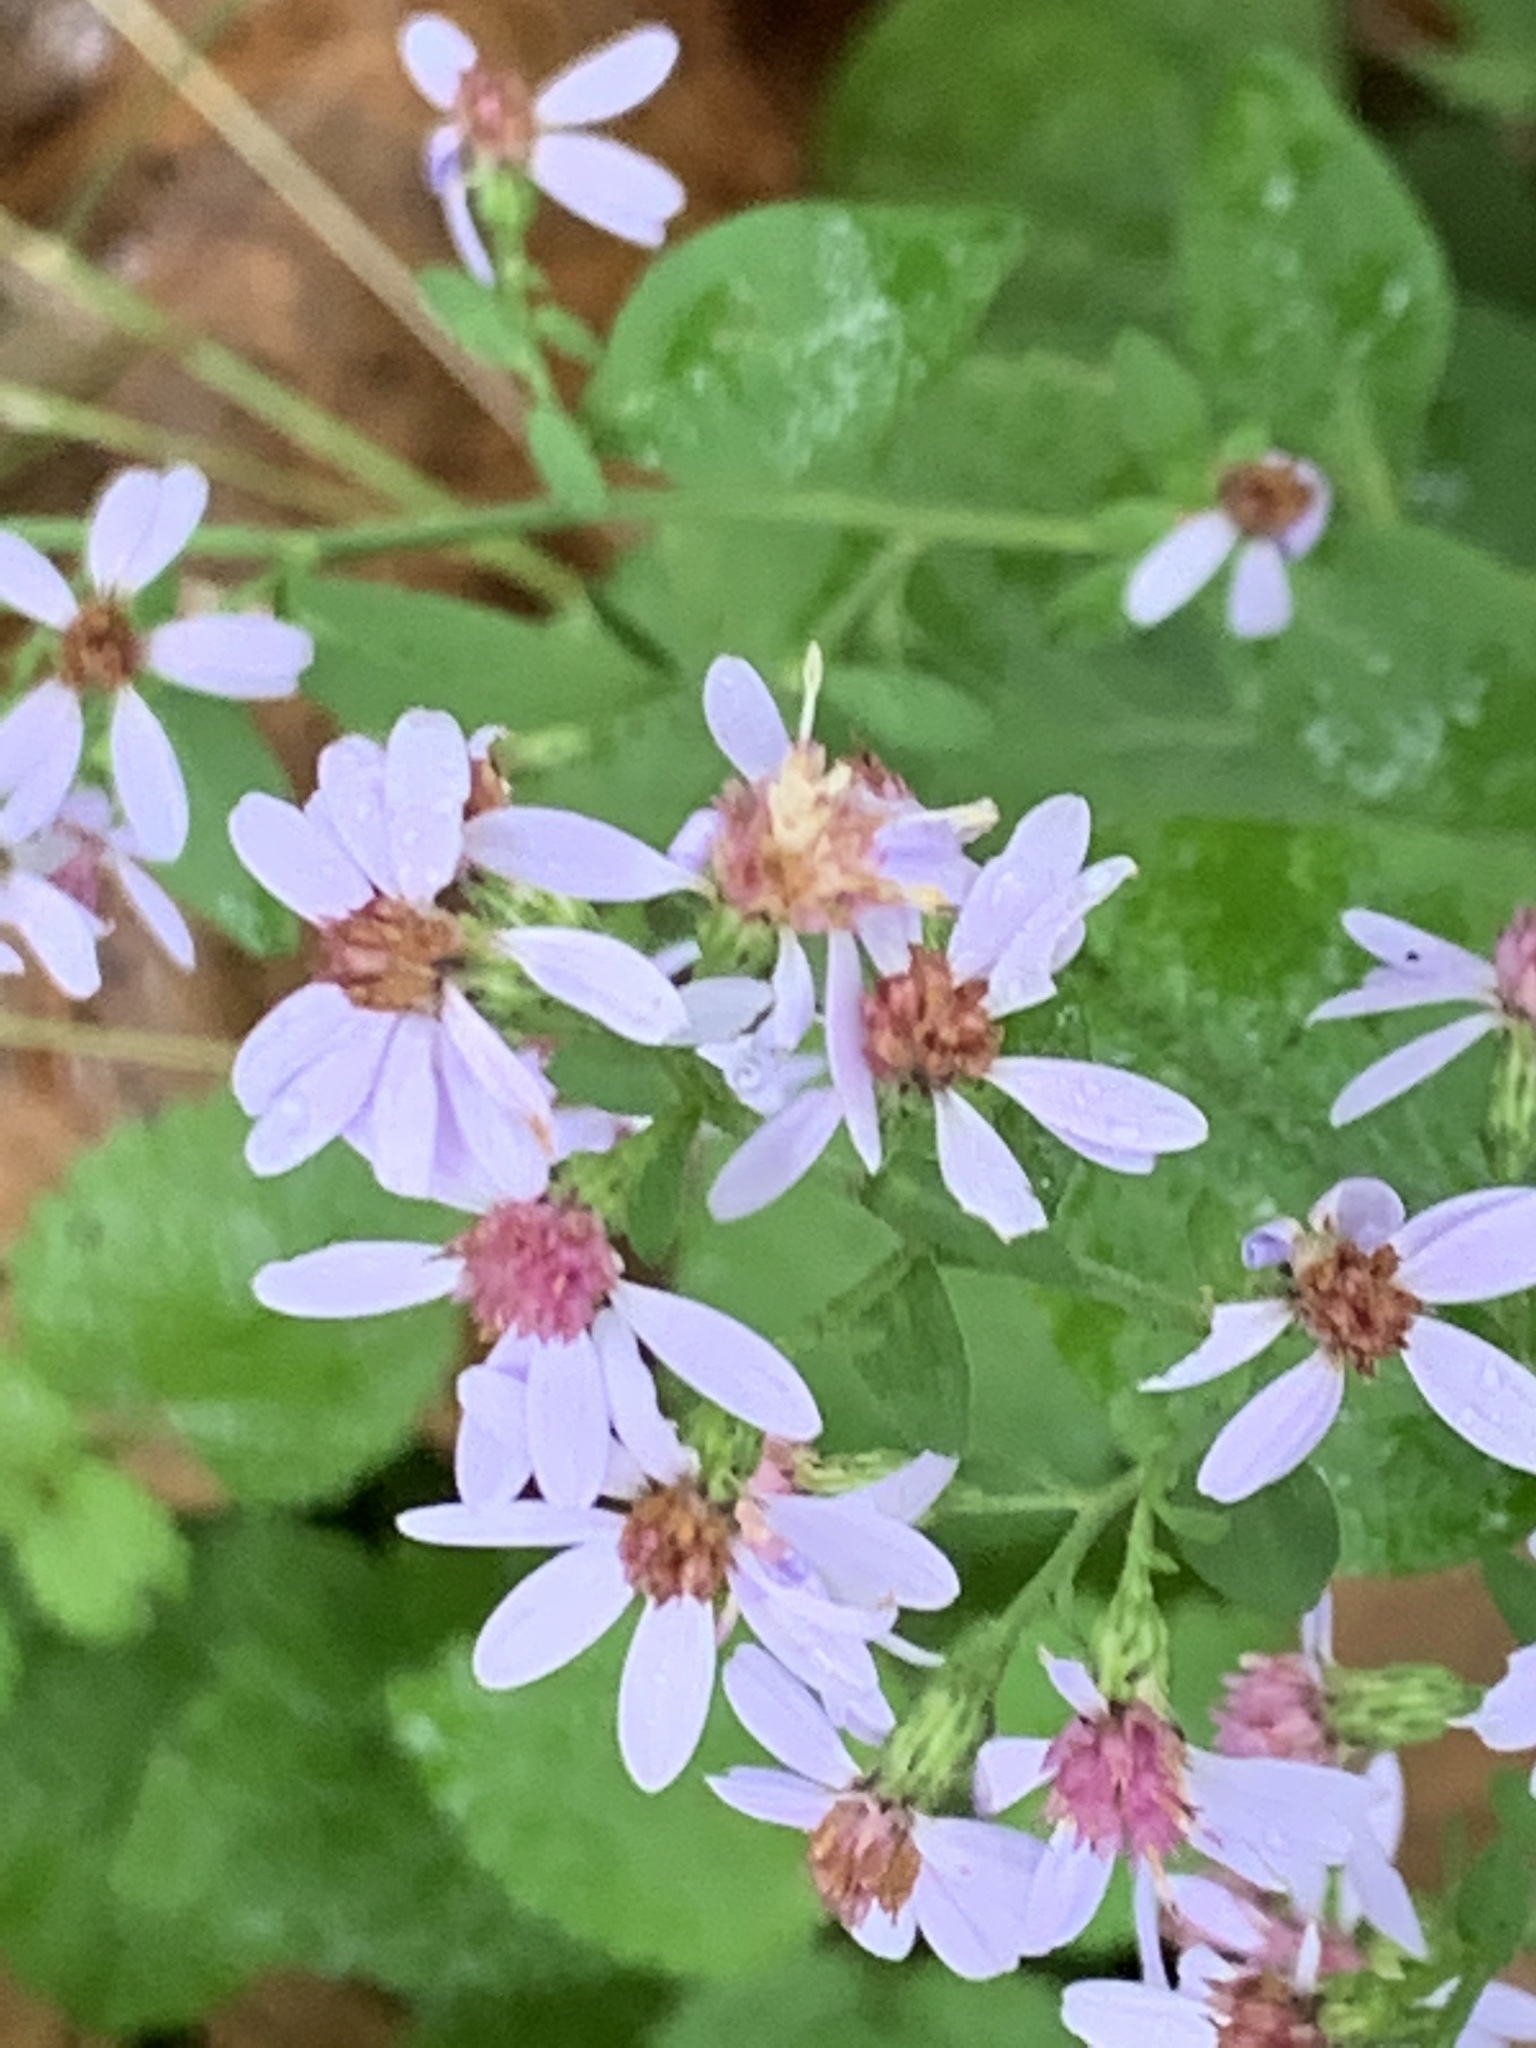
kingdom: Plantae
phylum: Tracheophyta
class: Magnoliopsida
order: Asterales
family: Asteraceae
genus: Symphyotrichum
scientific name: Symphyotrichum cordifolium
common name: Beeweed
